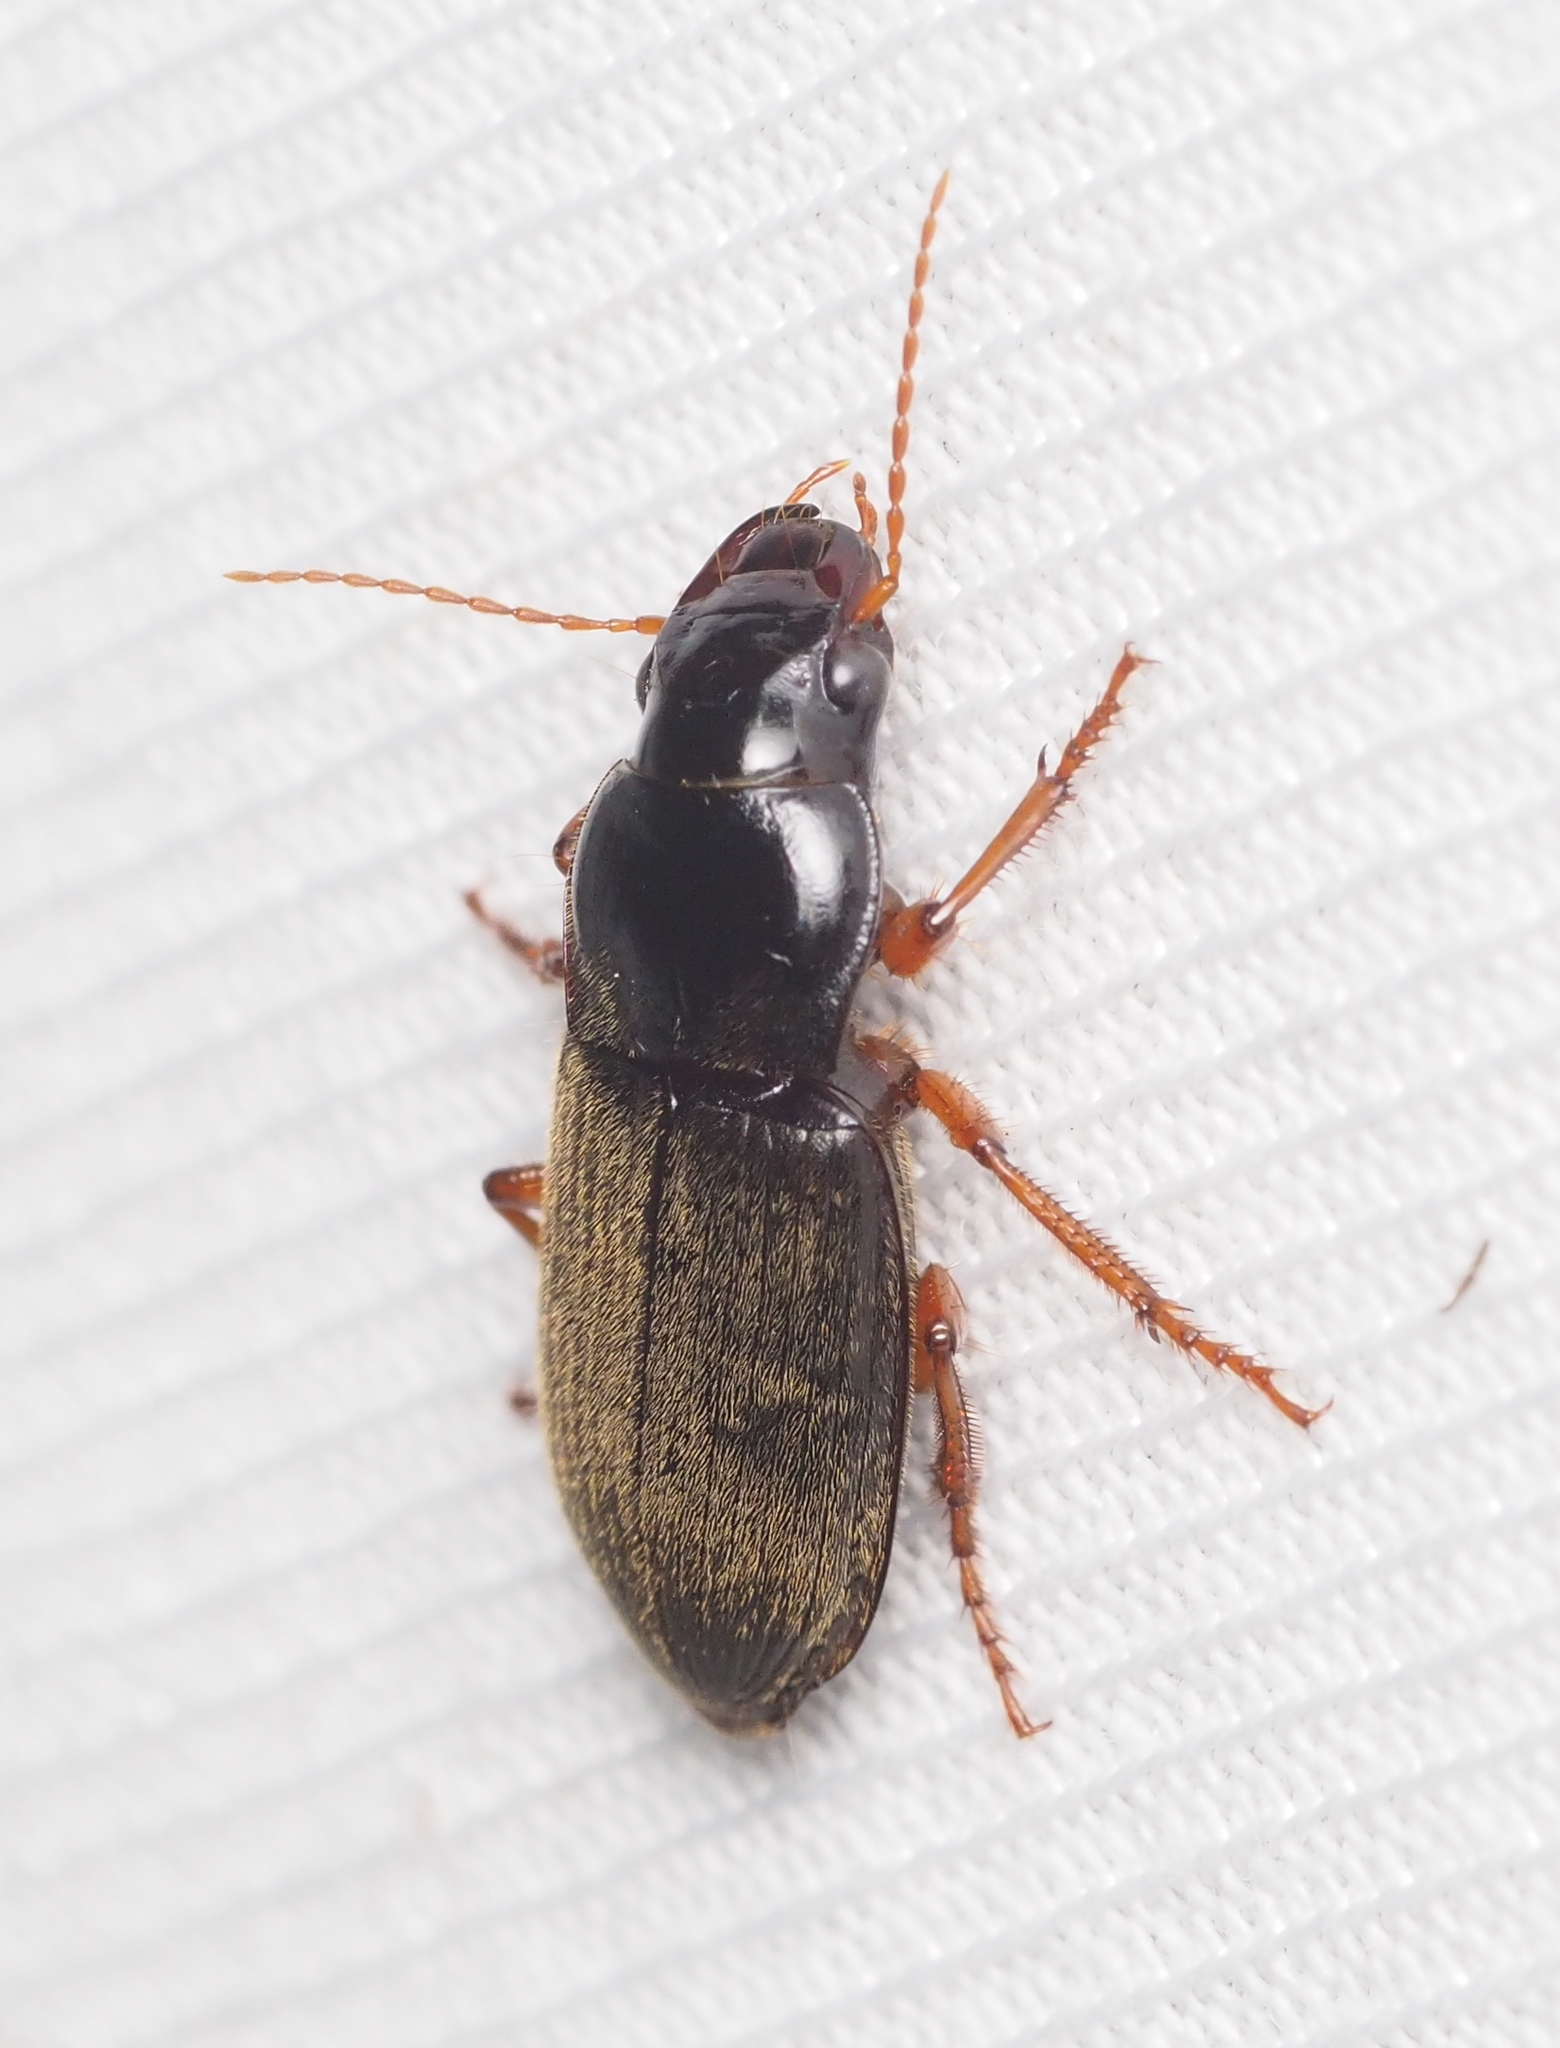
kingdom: Animalia
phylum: Arthropoda
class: Insecta
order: Coleoptera
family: Carabidae
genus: Harpalus
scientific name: Harpalus rufipes
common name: Strawberry harp ground beetle
